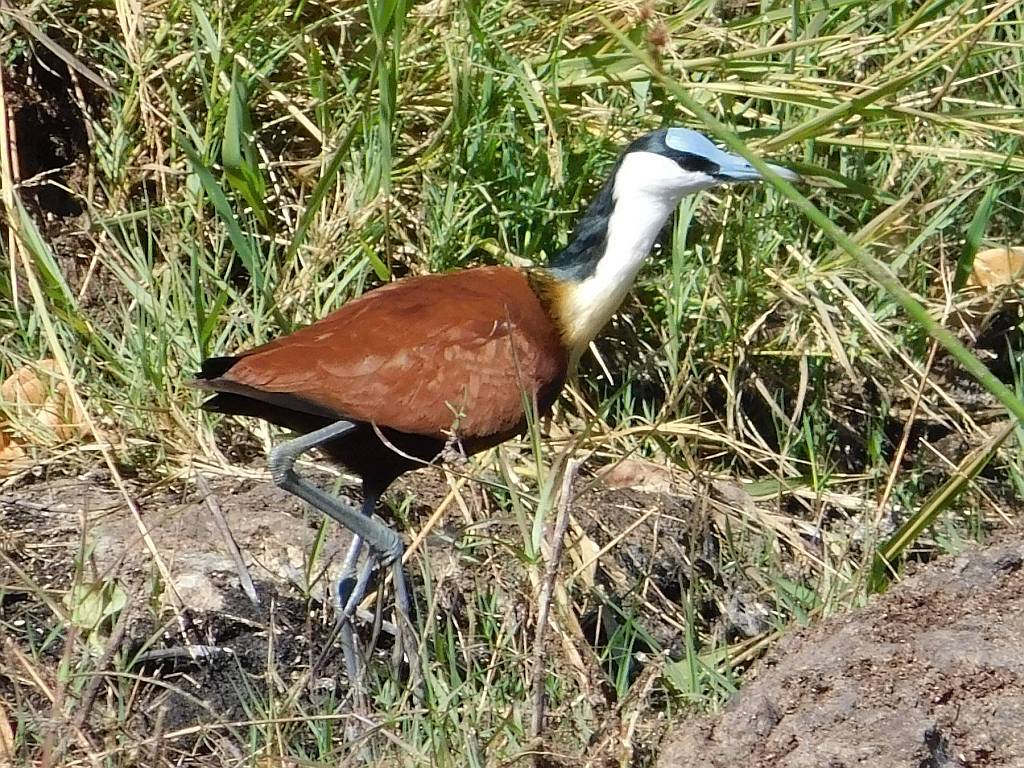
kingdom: Animalia
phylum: Chordata
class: Aves
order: Charadriiformes
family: Jacanidae
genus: Actophilornis
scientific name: Actophilornis africanus
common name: African jacana
